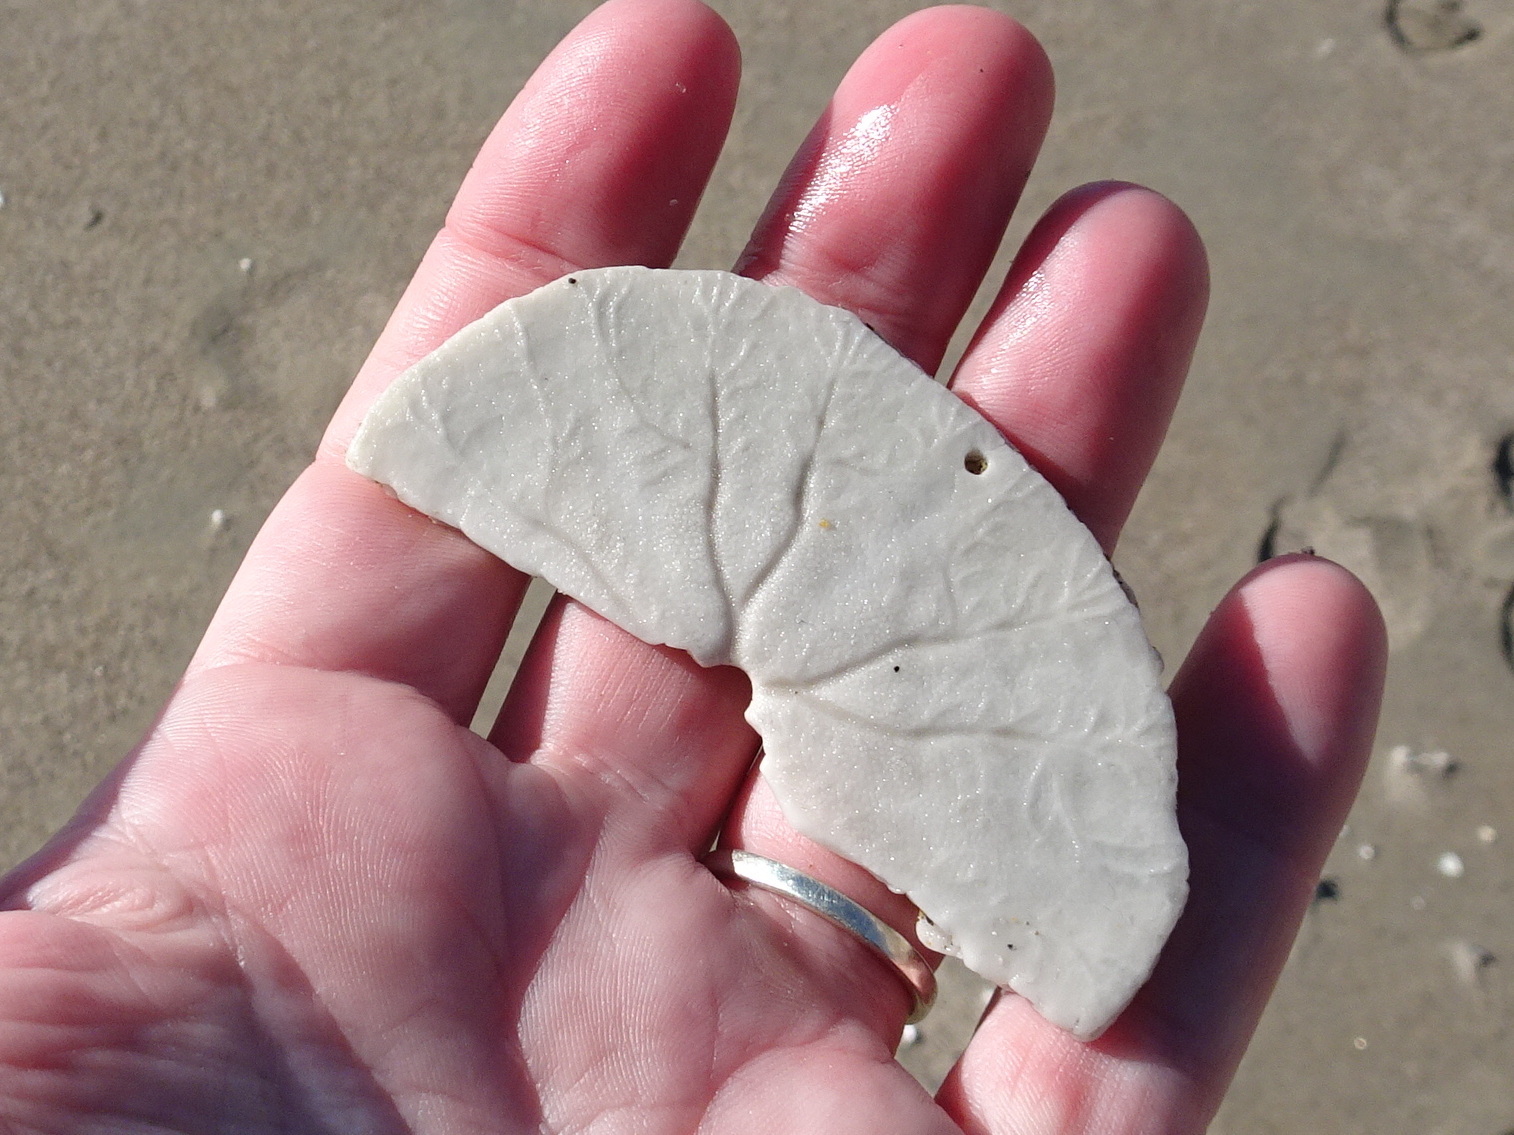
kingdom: Animalia
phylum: Echinodermata
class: Echinoidea
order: Echinolampadacea
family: Dendrasteridae
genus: Dendraster
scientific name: Dendraster excentricus
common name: Eccentric sand dollar sea urchin
